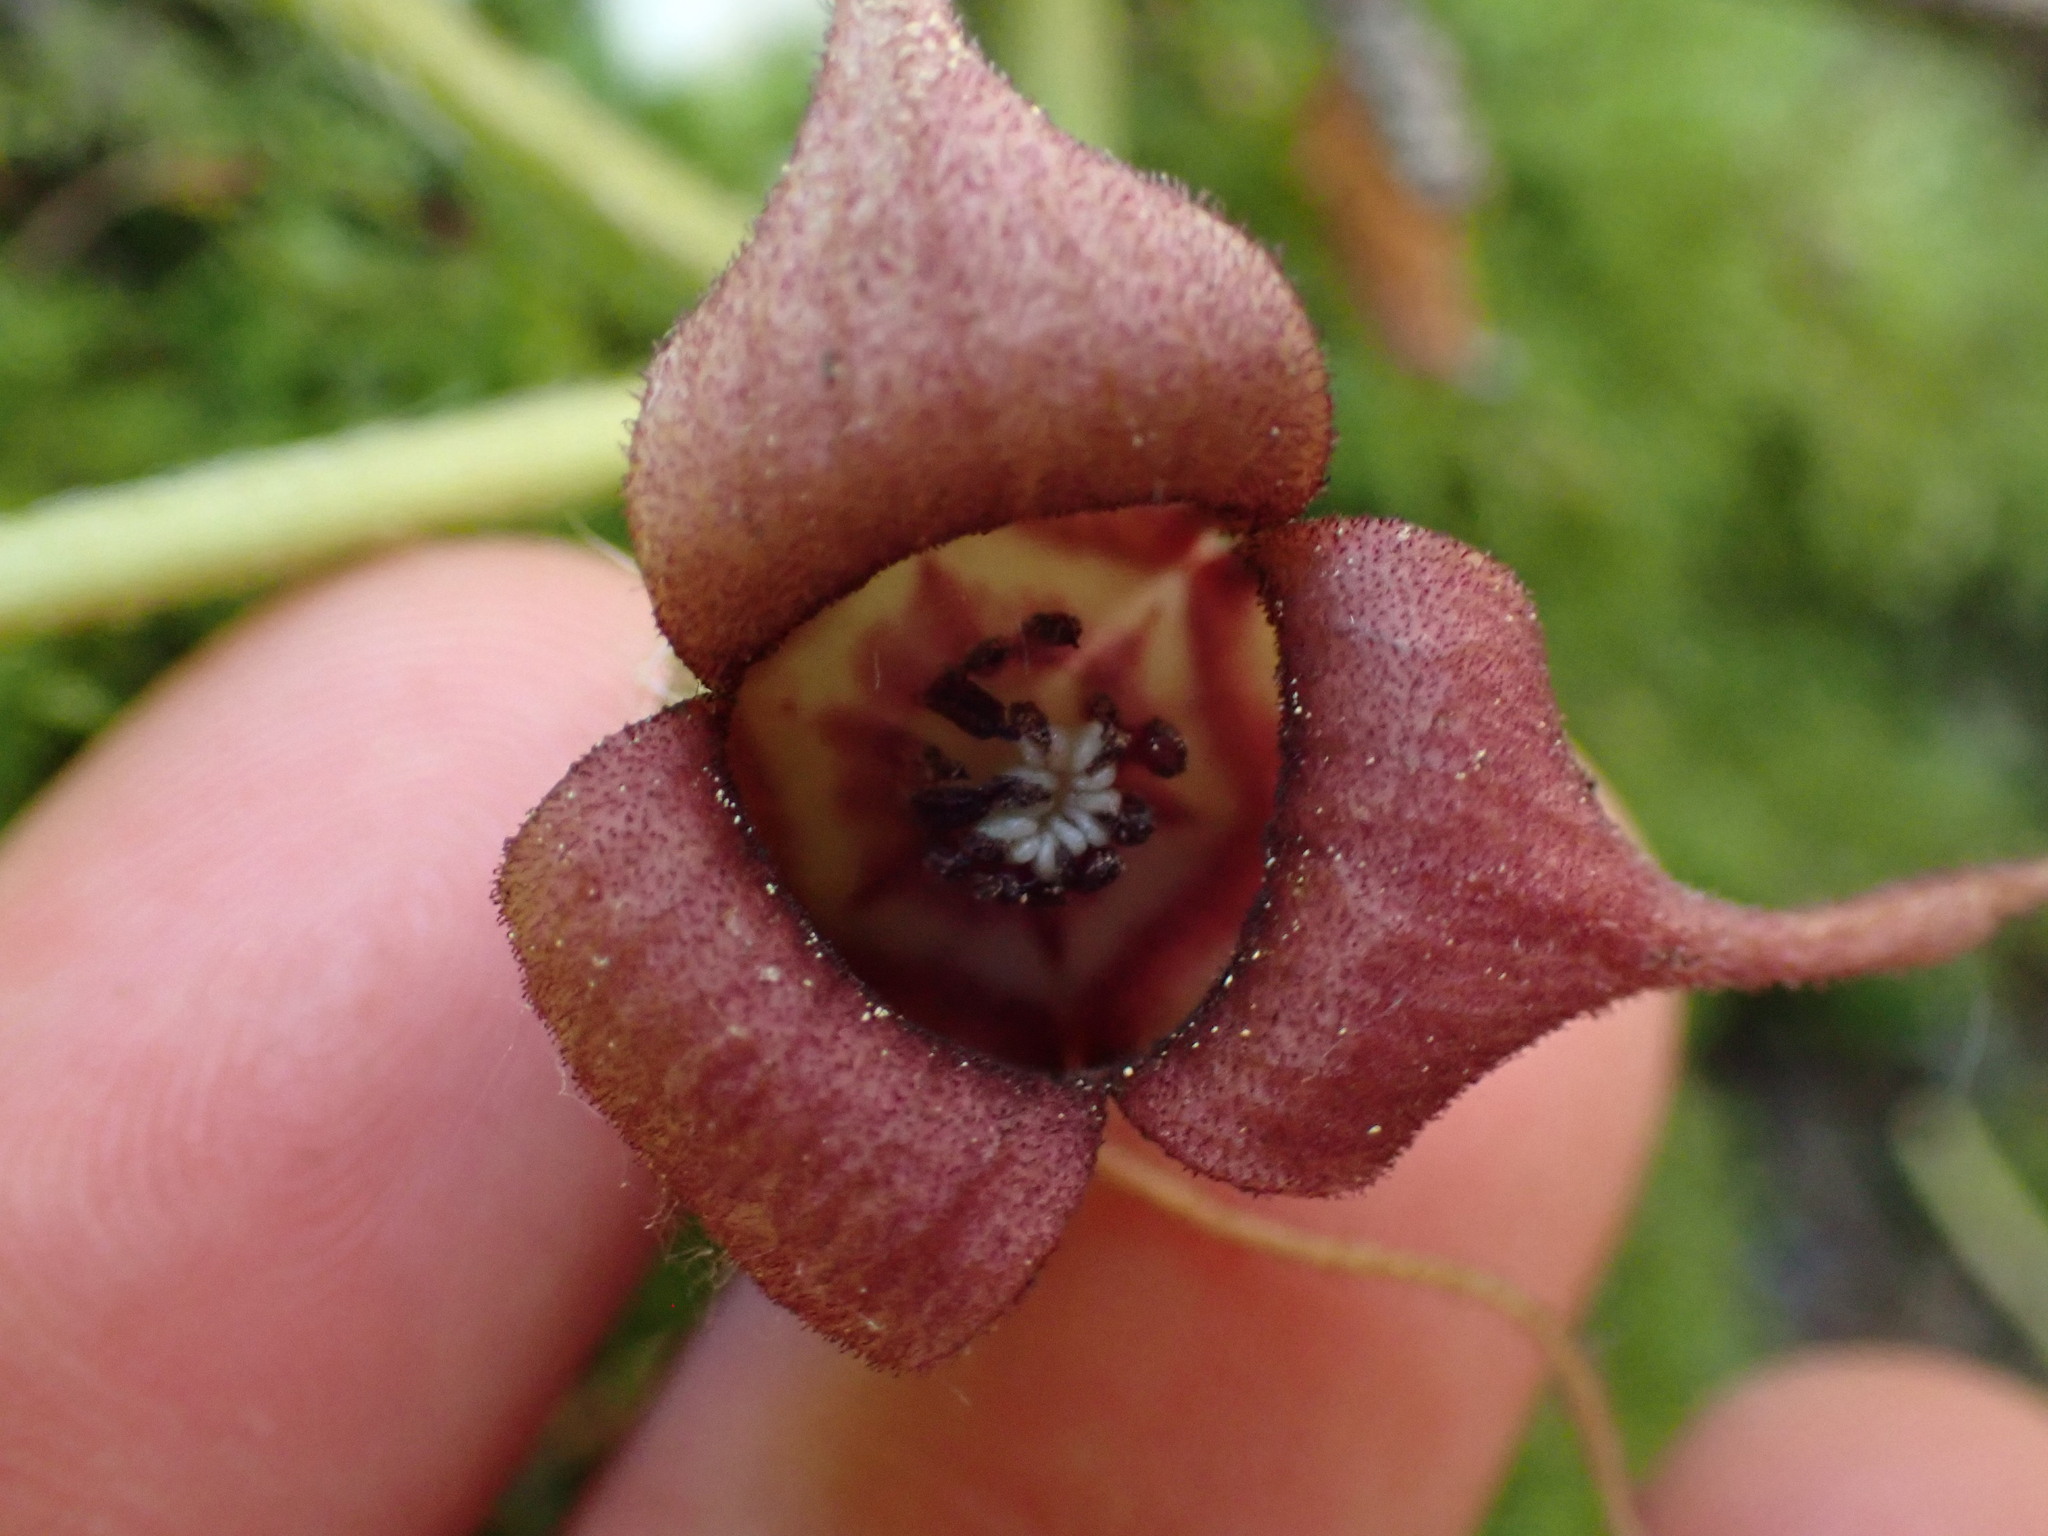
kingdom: Plantae
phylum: Tracheophyta
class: Magnoliopsida
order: Piperales
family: Aristolochiaceae
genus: Asarum
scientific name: Asarum caudatum
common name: Wild ginger
